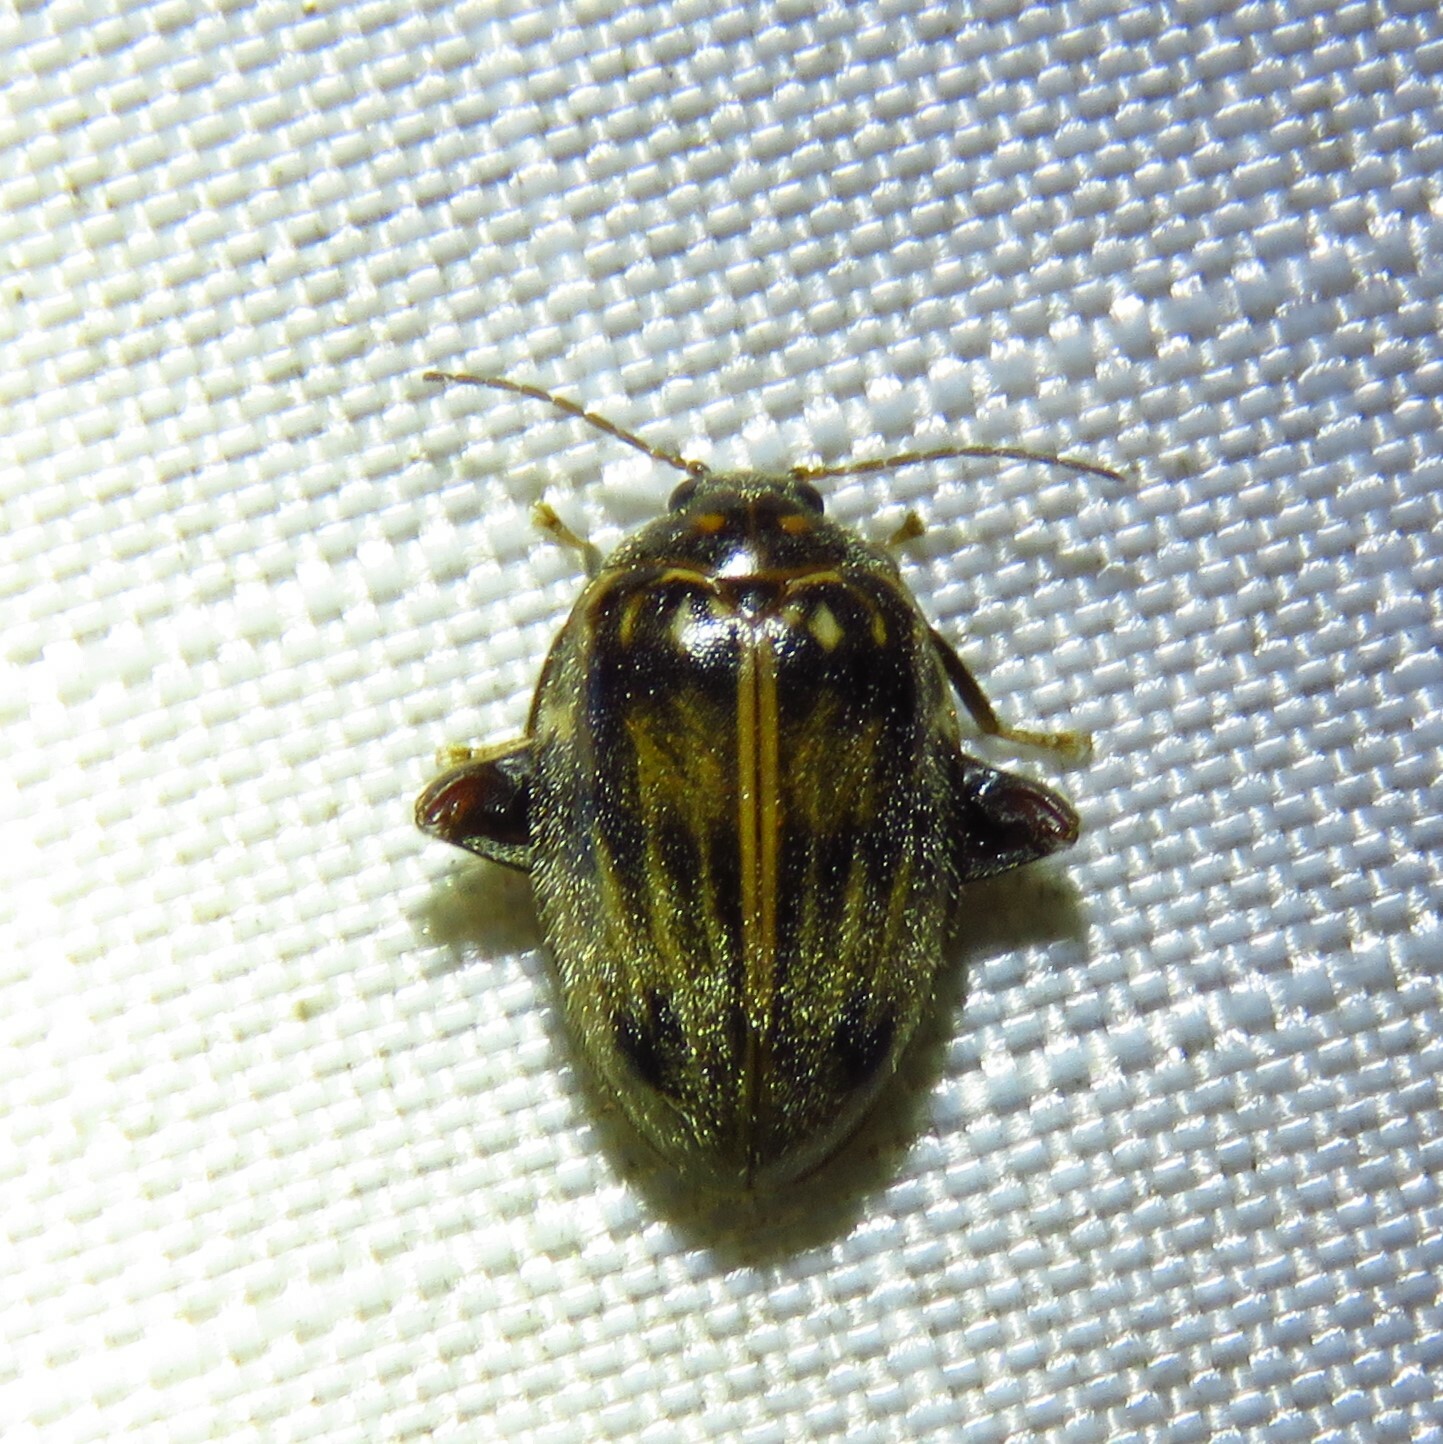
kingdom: Animalia
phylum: Arthropoda
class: Insecta
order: Coleoptera
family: Scirtidae
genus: Ora
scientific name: Ora texana
